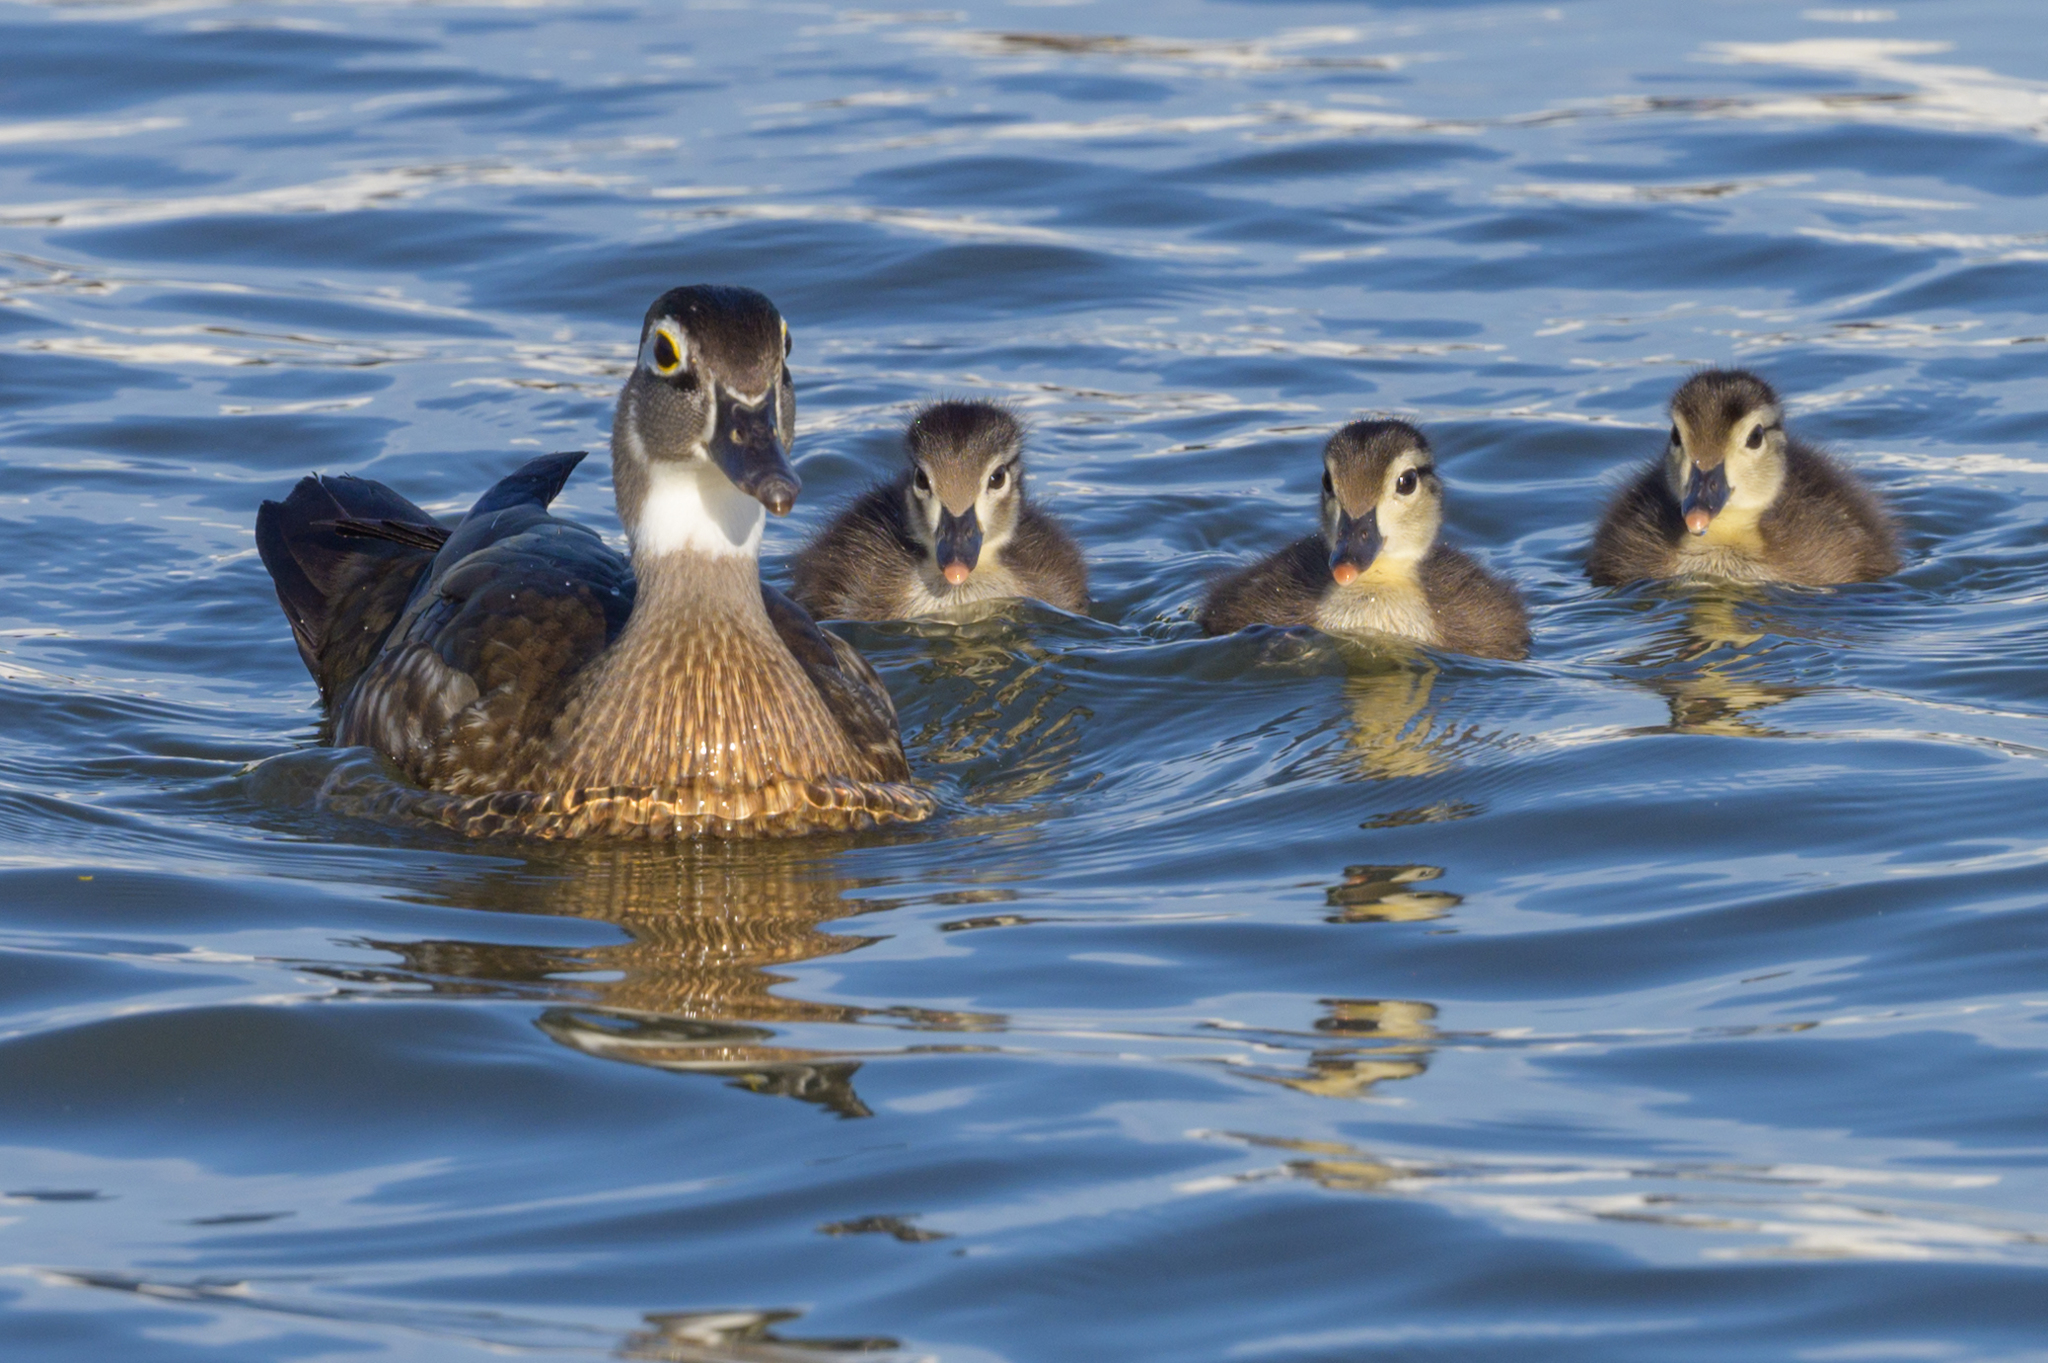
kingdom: Animalia
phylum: Chordata
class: Aves
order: Anseriformes
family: Anatidae
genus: Aix
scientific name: Aix sponsa
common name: Wood duck
